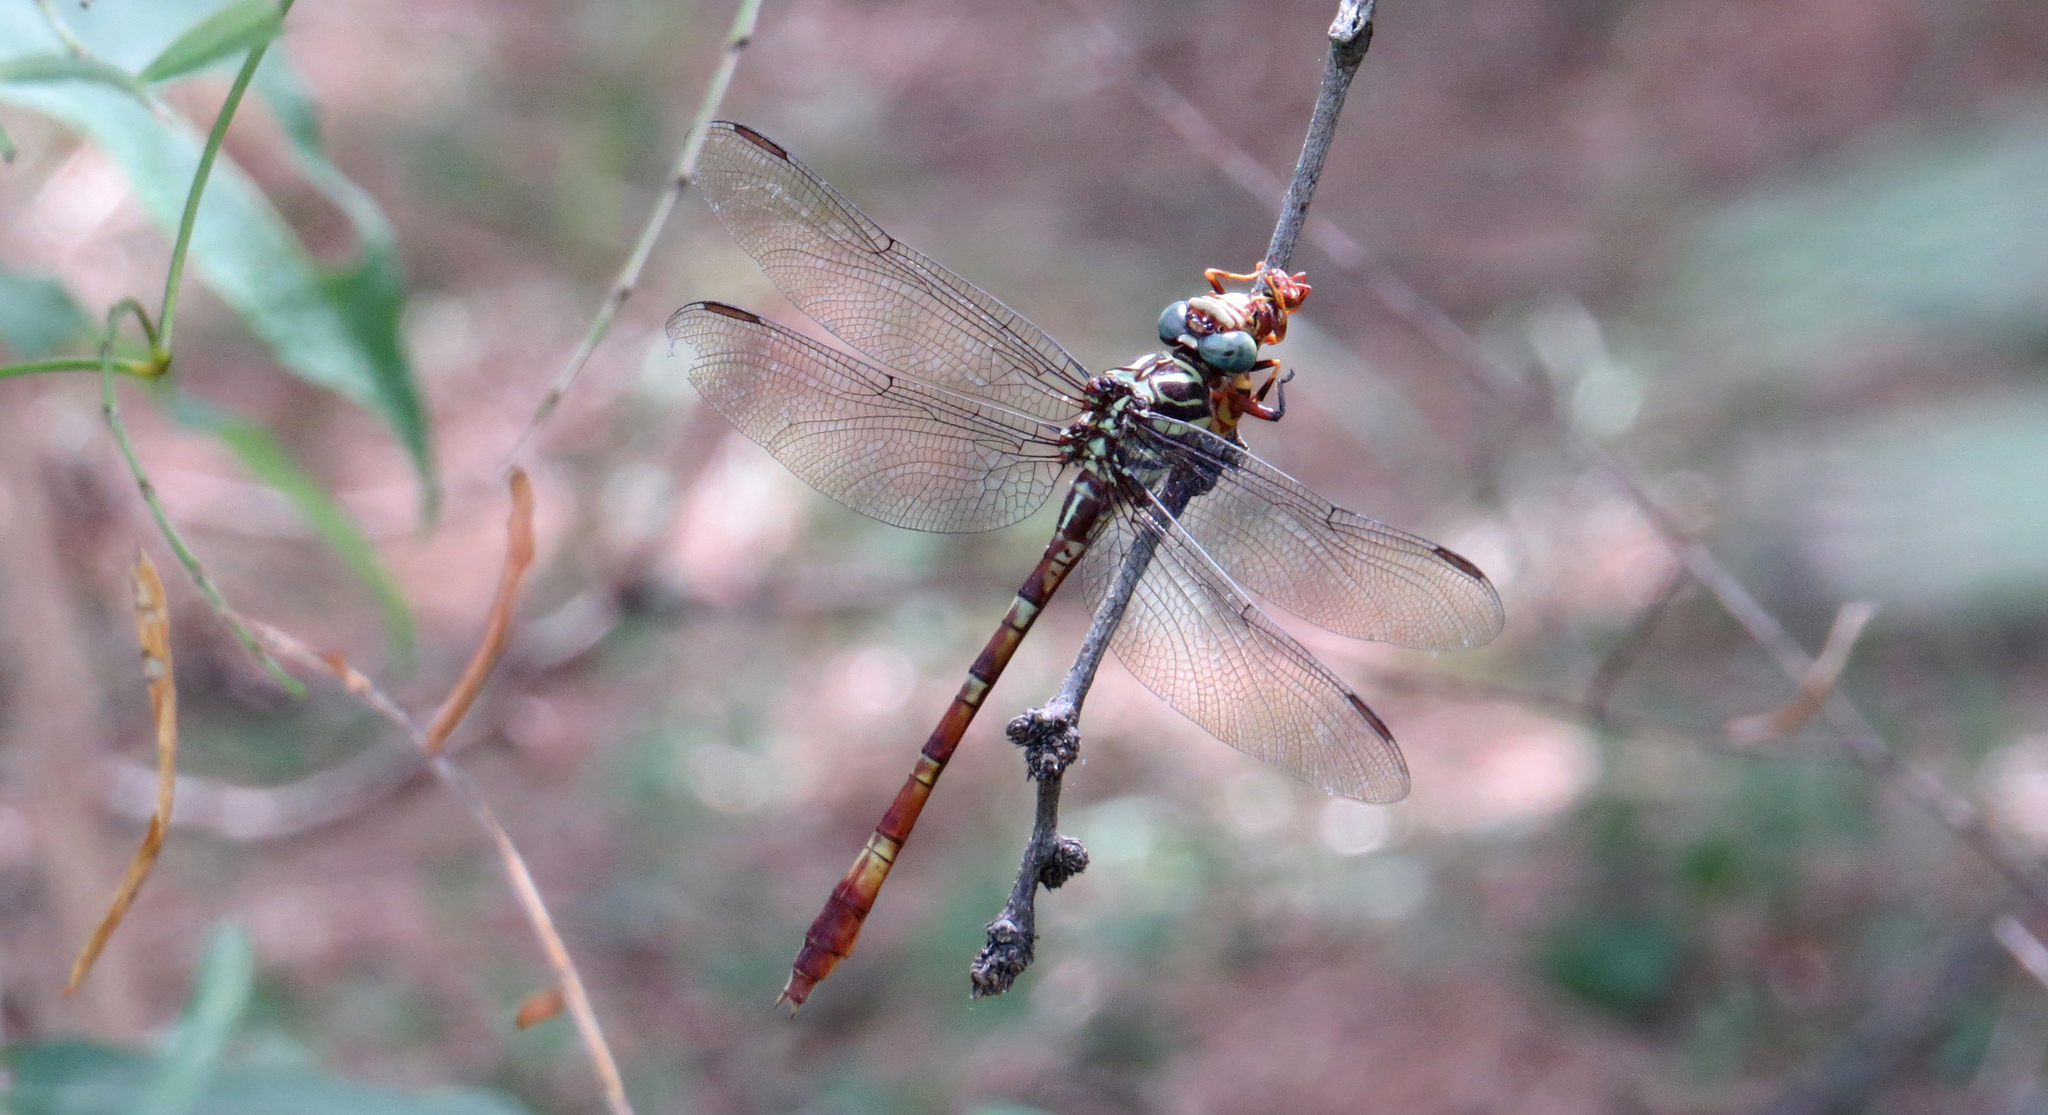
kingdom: Animalia
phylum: Arthropoda
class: Insecta
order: Odonata
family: Gomphidae
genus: Aphylla
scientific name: Aphylla angustifolia
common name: Broad-striped forceptail
